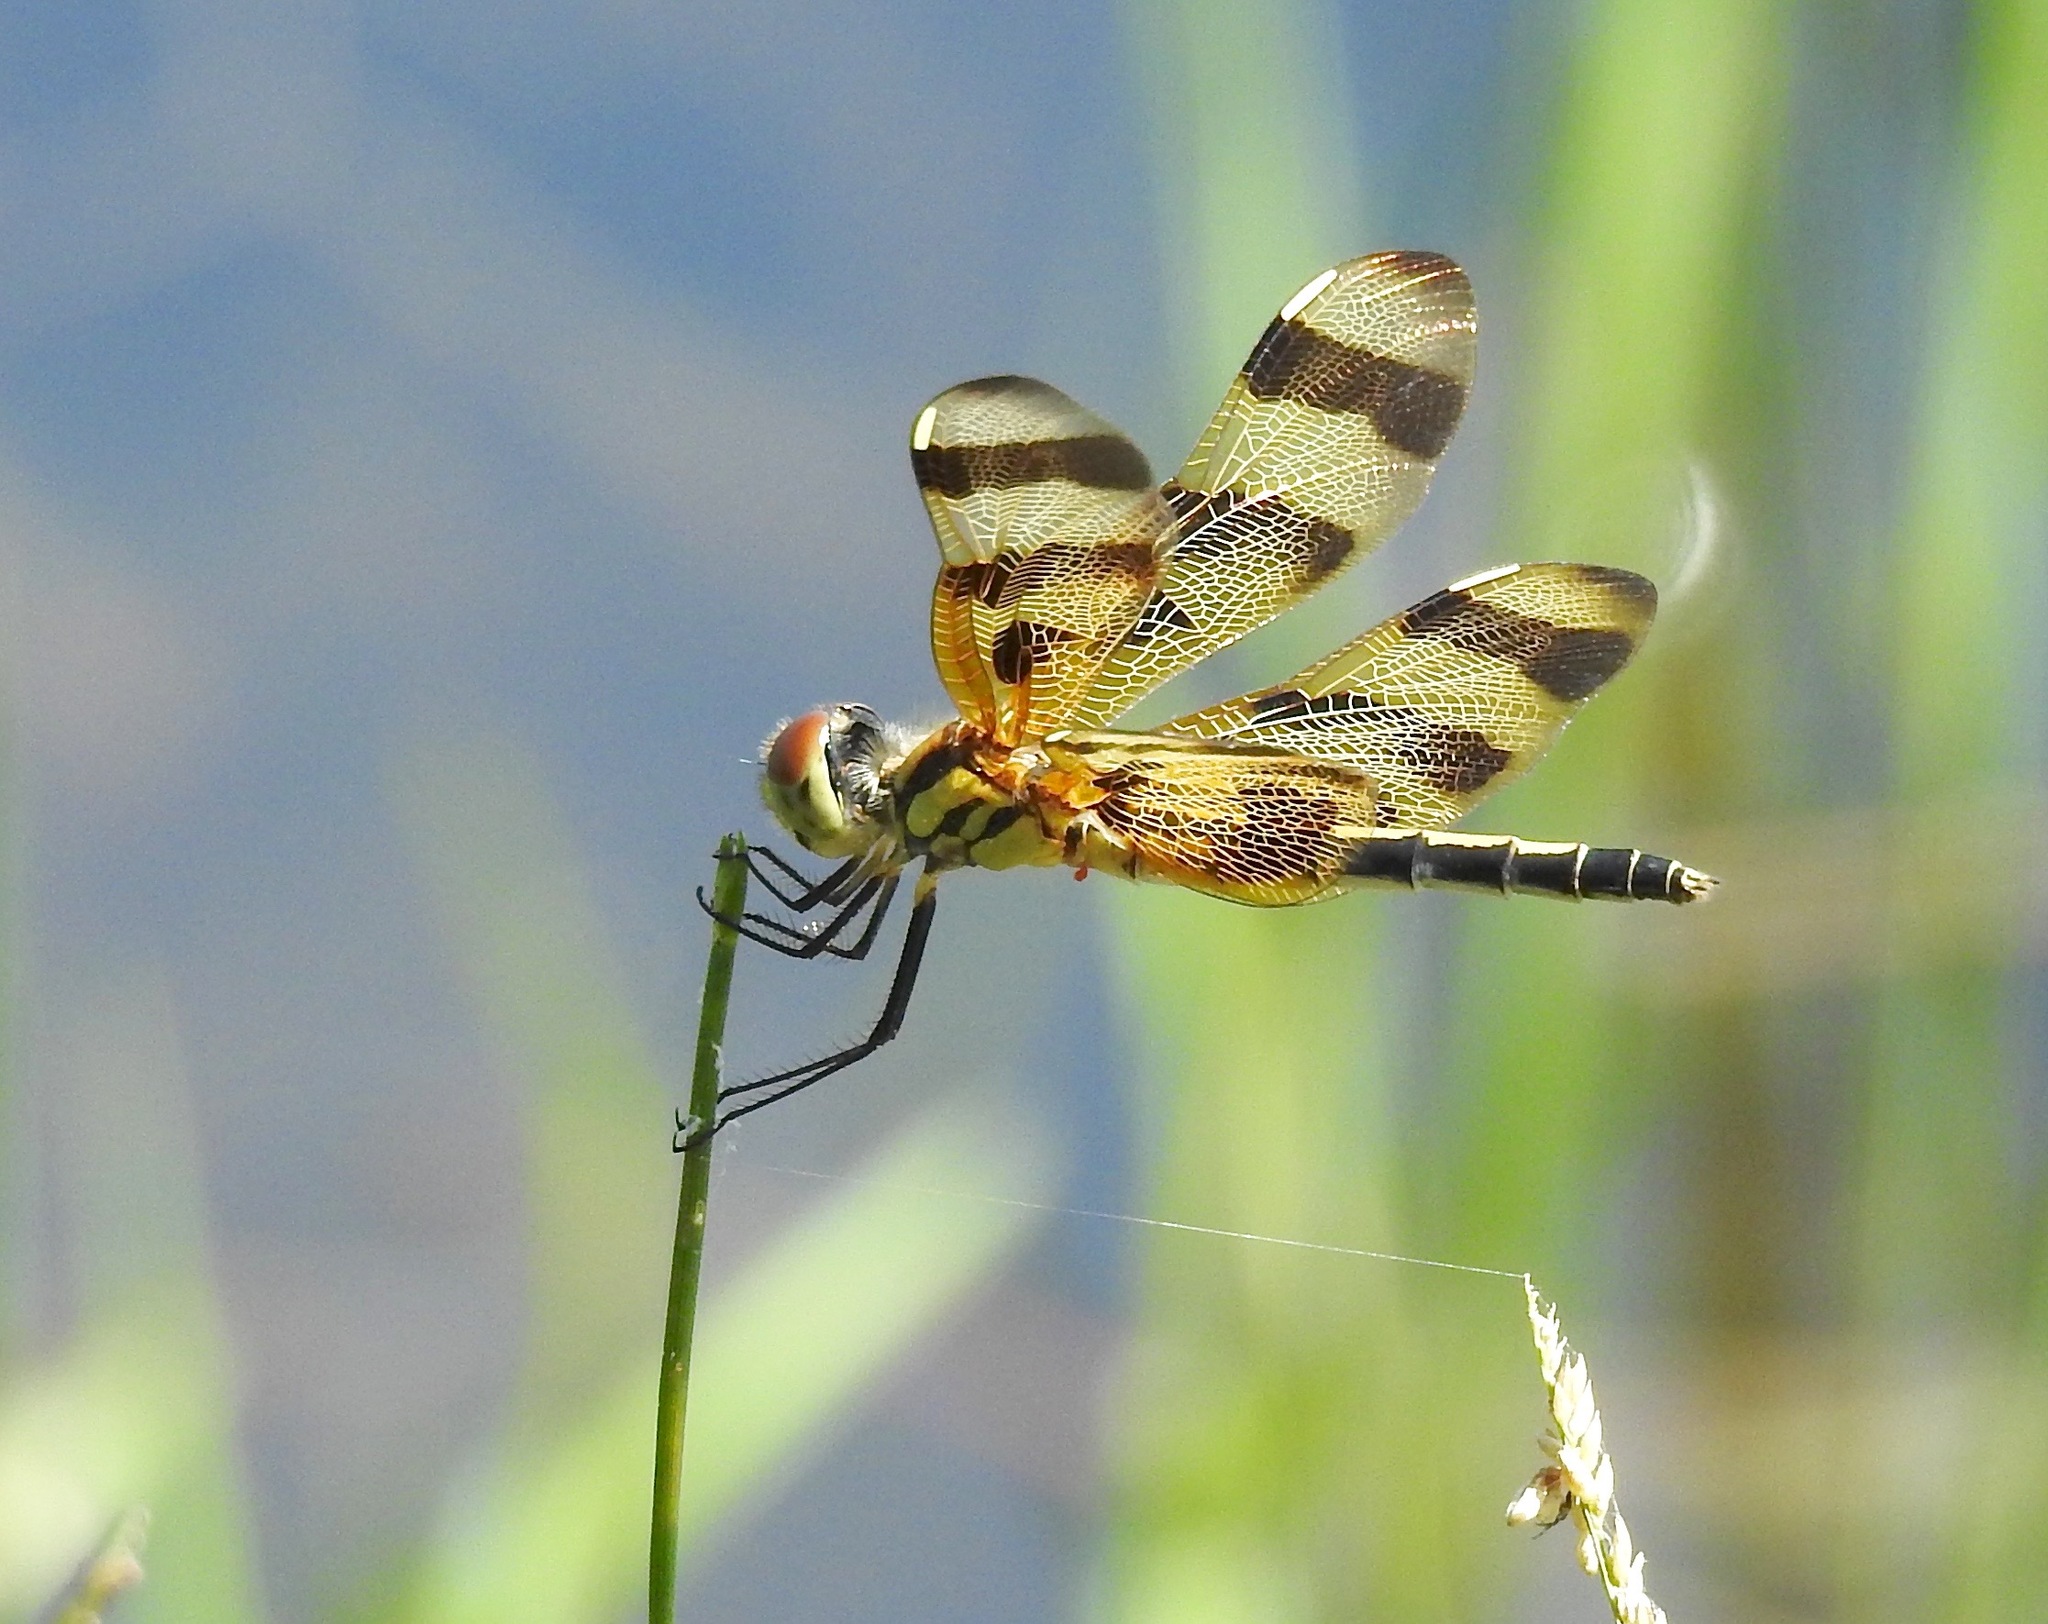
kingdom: Animalia
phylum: Arthropoda
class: Insecta
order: Odonata
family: Libellulidae
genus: Celithemis
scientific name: Celithemis eponina
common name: Halloween pennant
